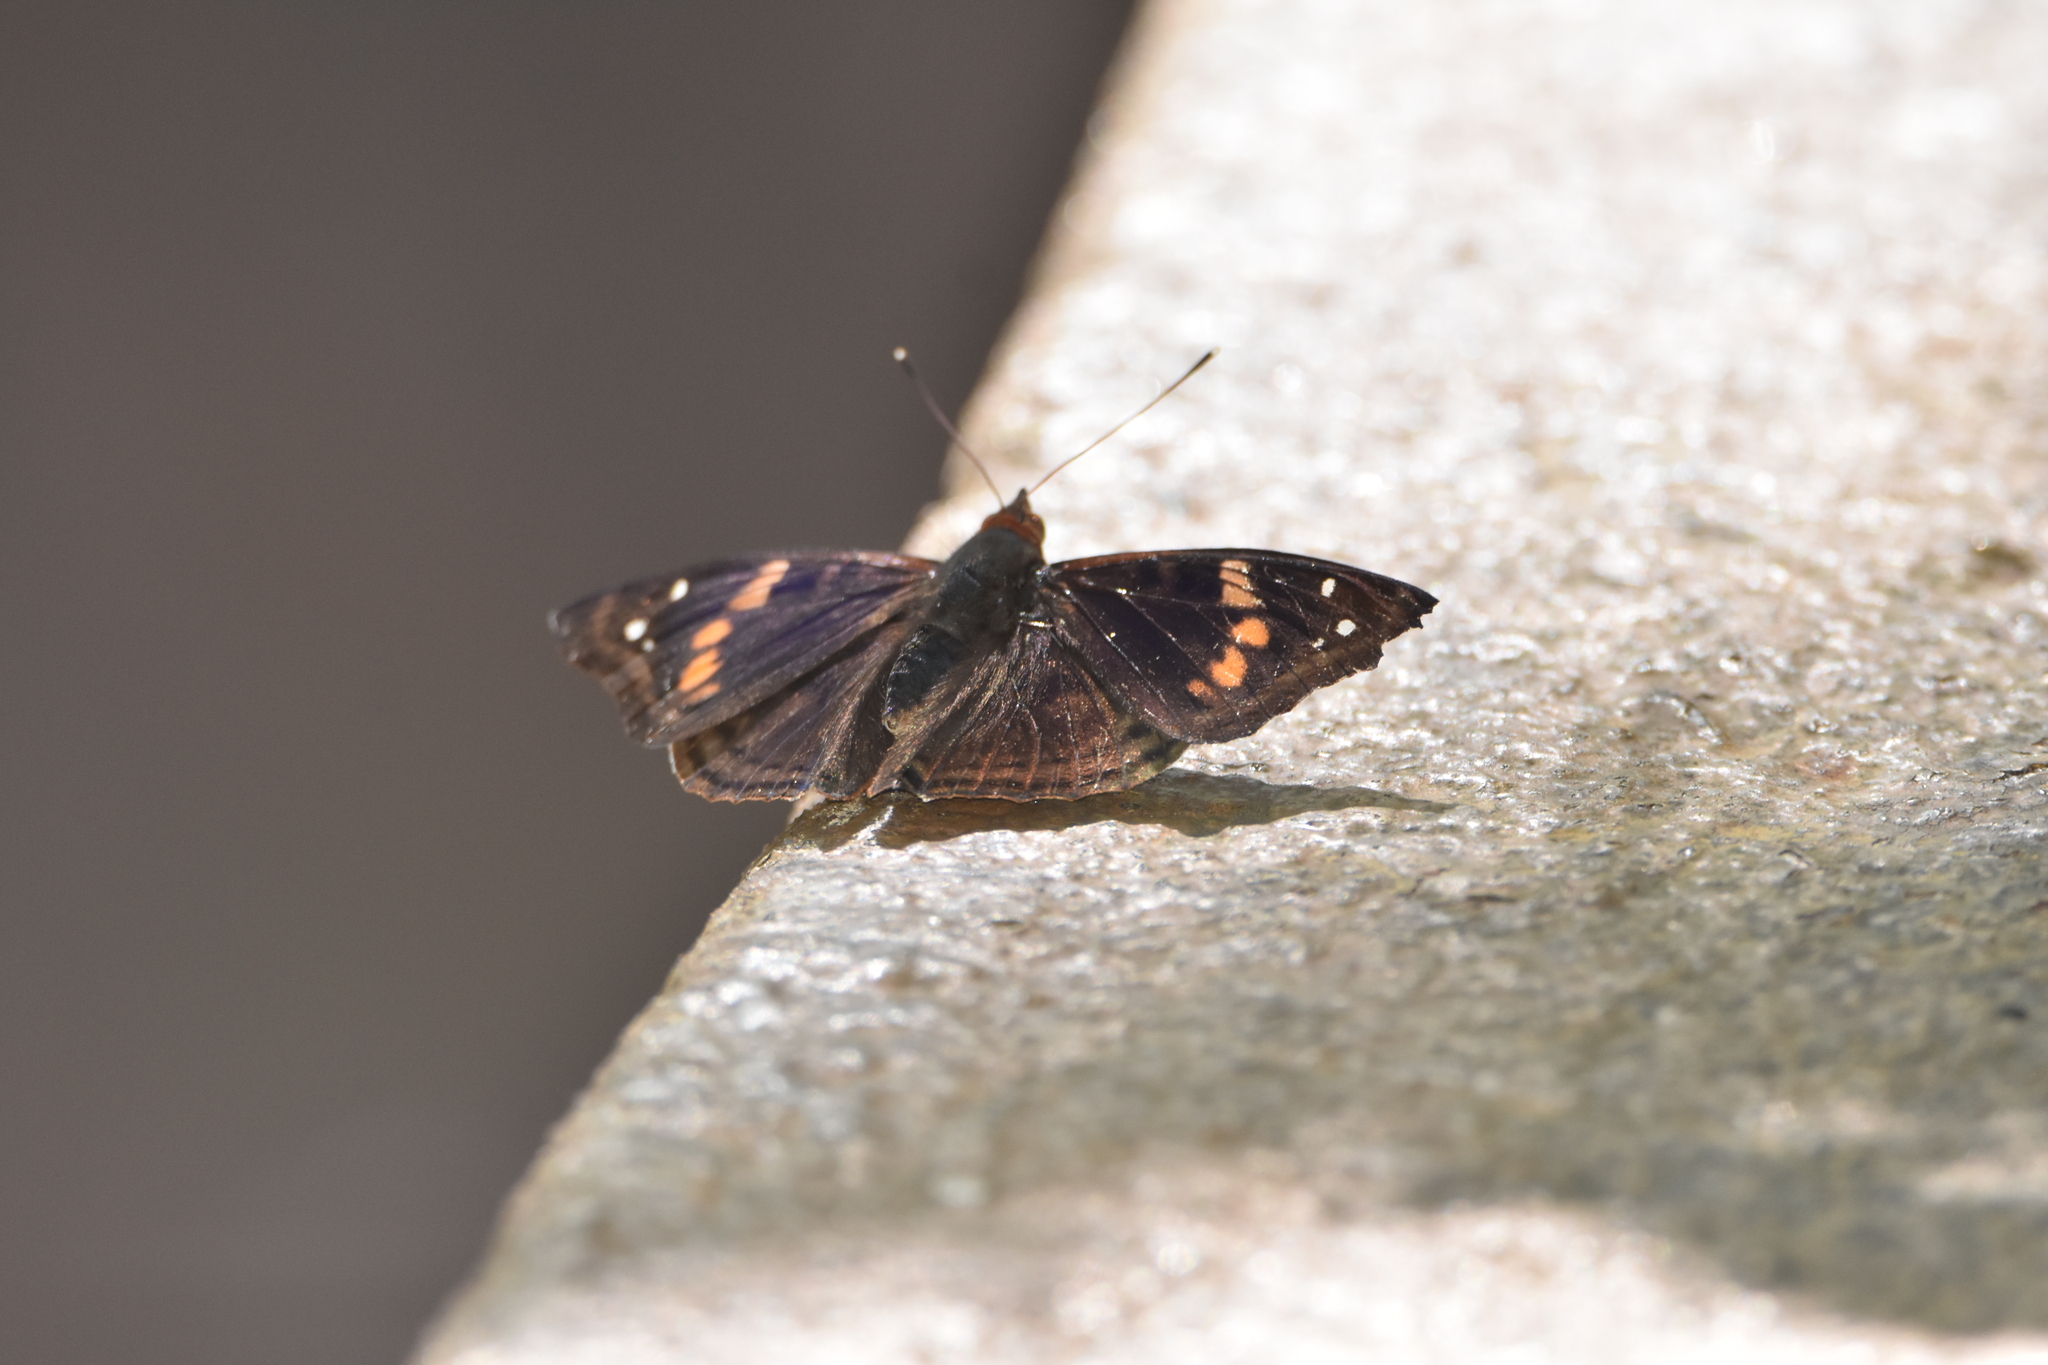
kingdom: Animalia
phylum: Arthropoda
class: Insecta
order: Lepidoptera
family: Nymphalidae
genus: Doxocopa
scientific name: Doxocopa agathina
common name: Agathina emperor
